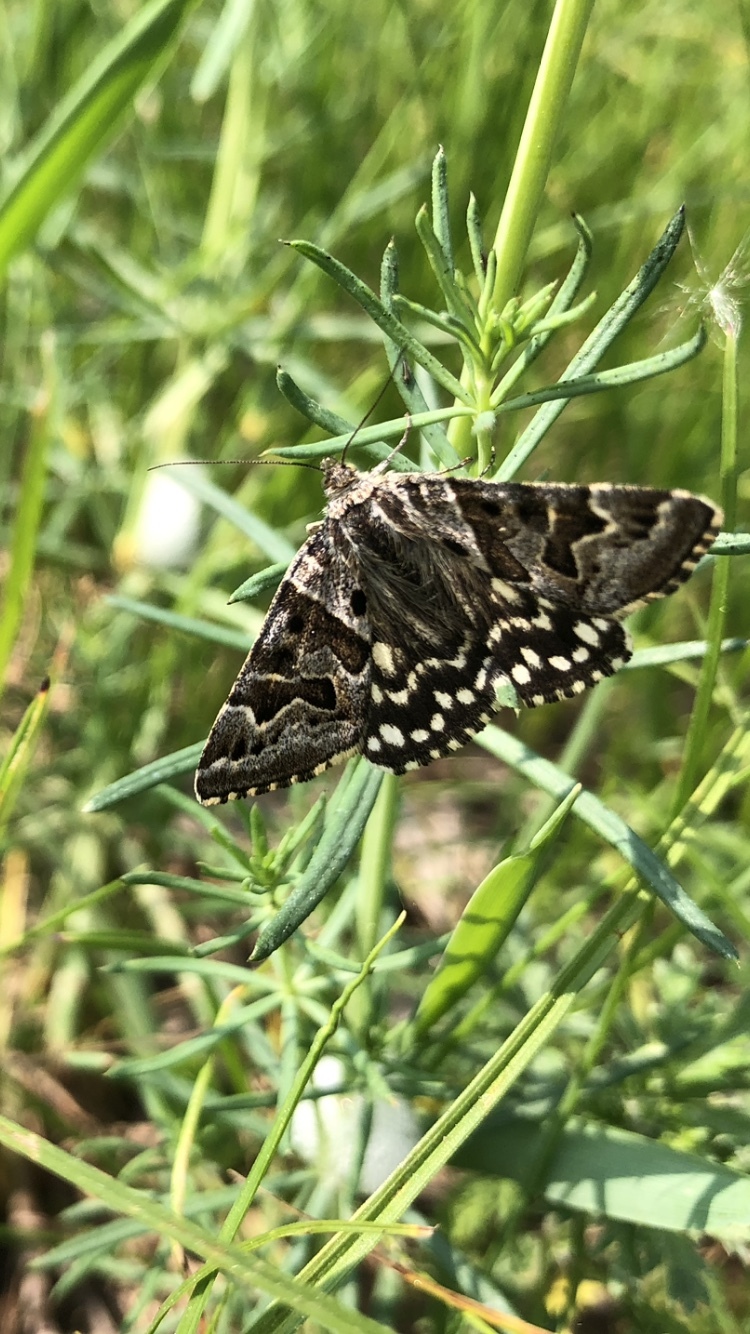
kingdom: Animalia
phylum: Arthropoda
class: Insecta
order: Lepidoptera
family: Erebidae
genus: Callistege
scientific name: Callistege mi
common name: Mother shipton
